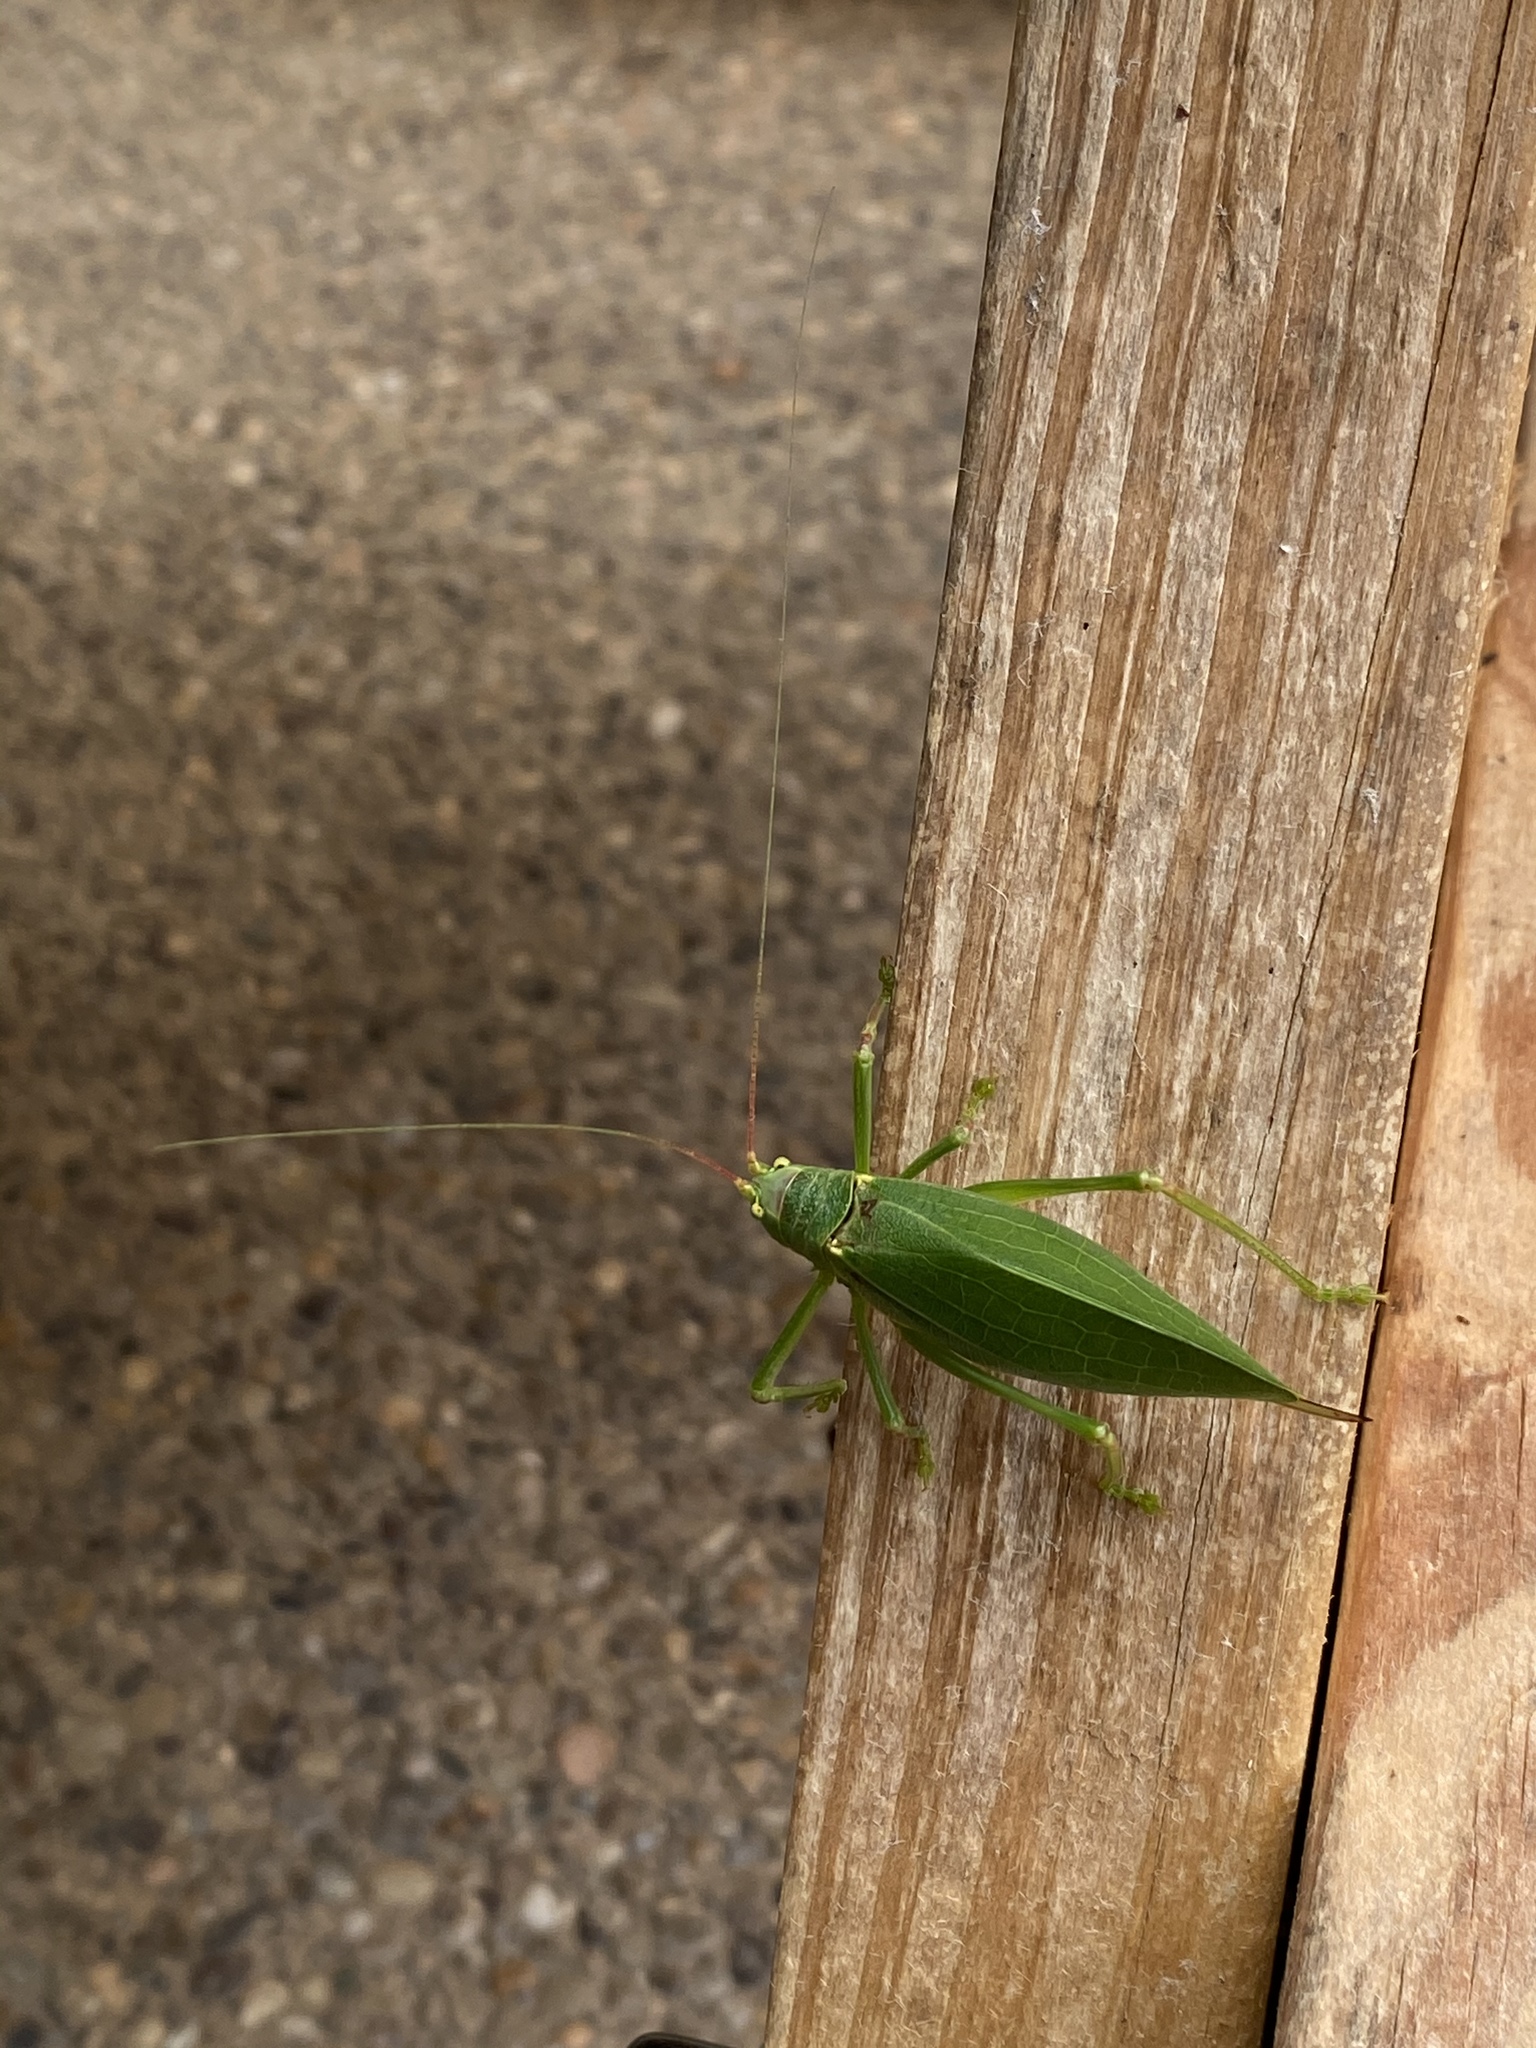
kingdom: Animalia
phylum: Arthropoda
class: Insecta
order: Orthoptera
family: Tettigoniidae
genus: Pterophylla
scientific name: Pterophylla camellifolia
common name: Common true katydid
